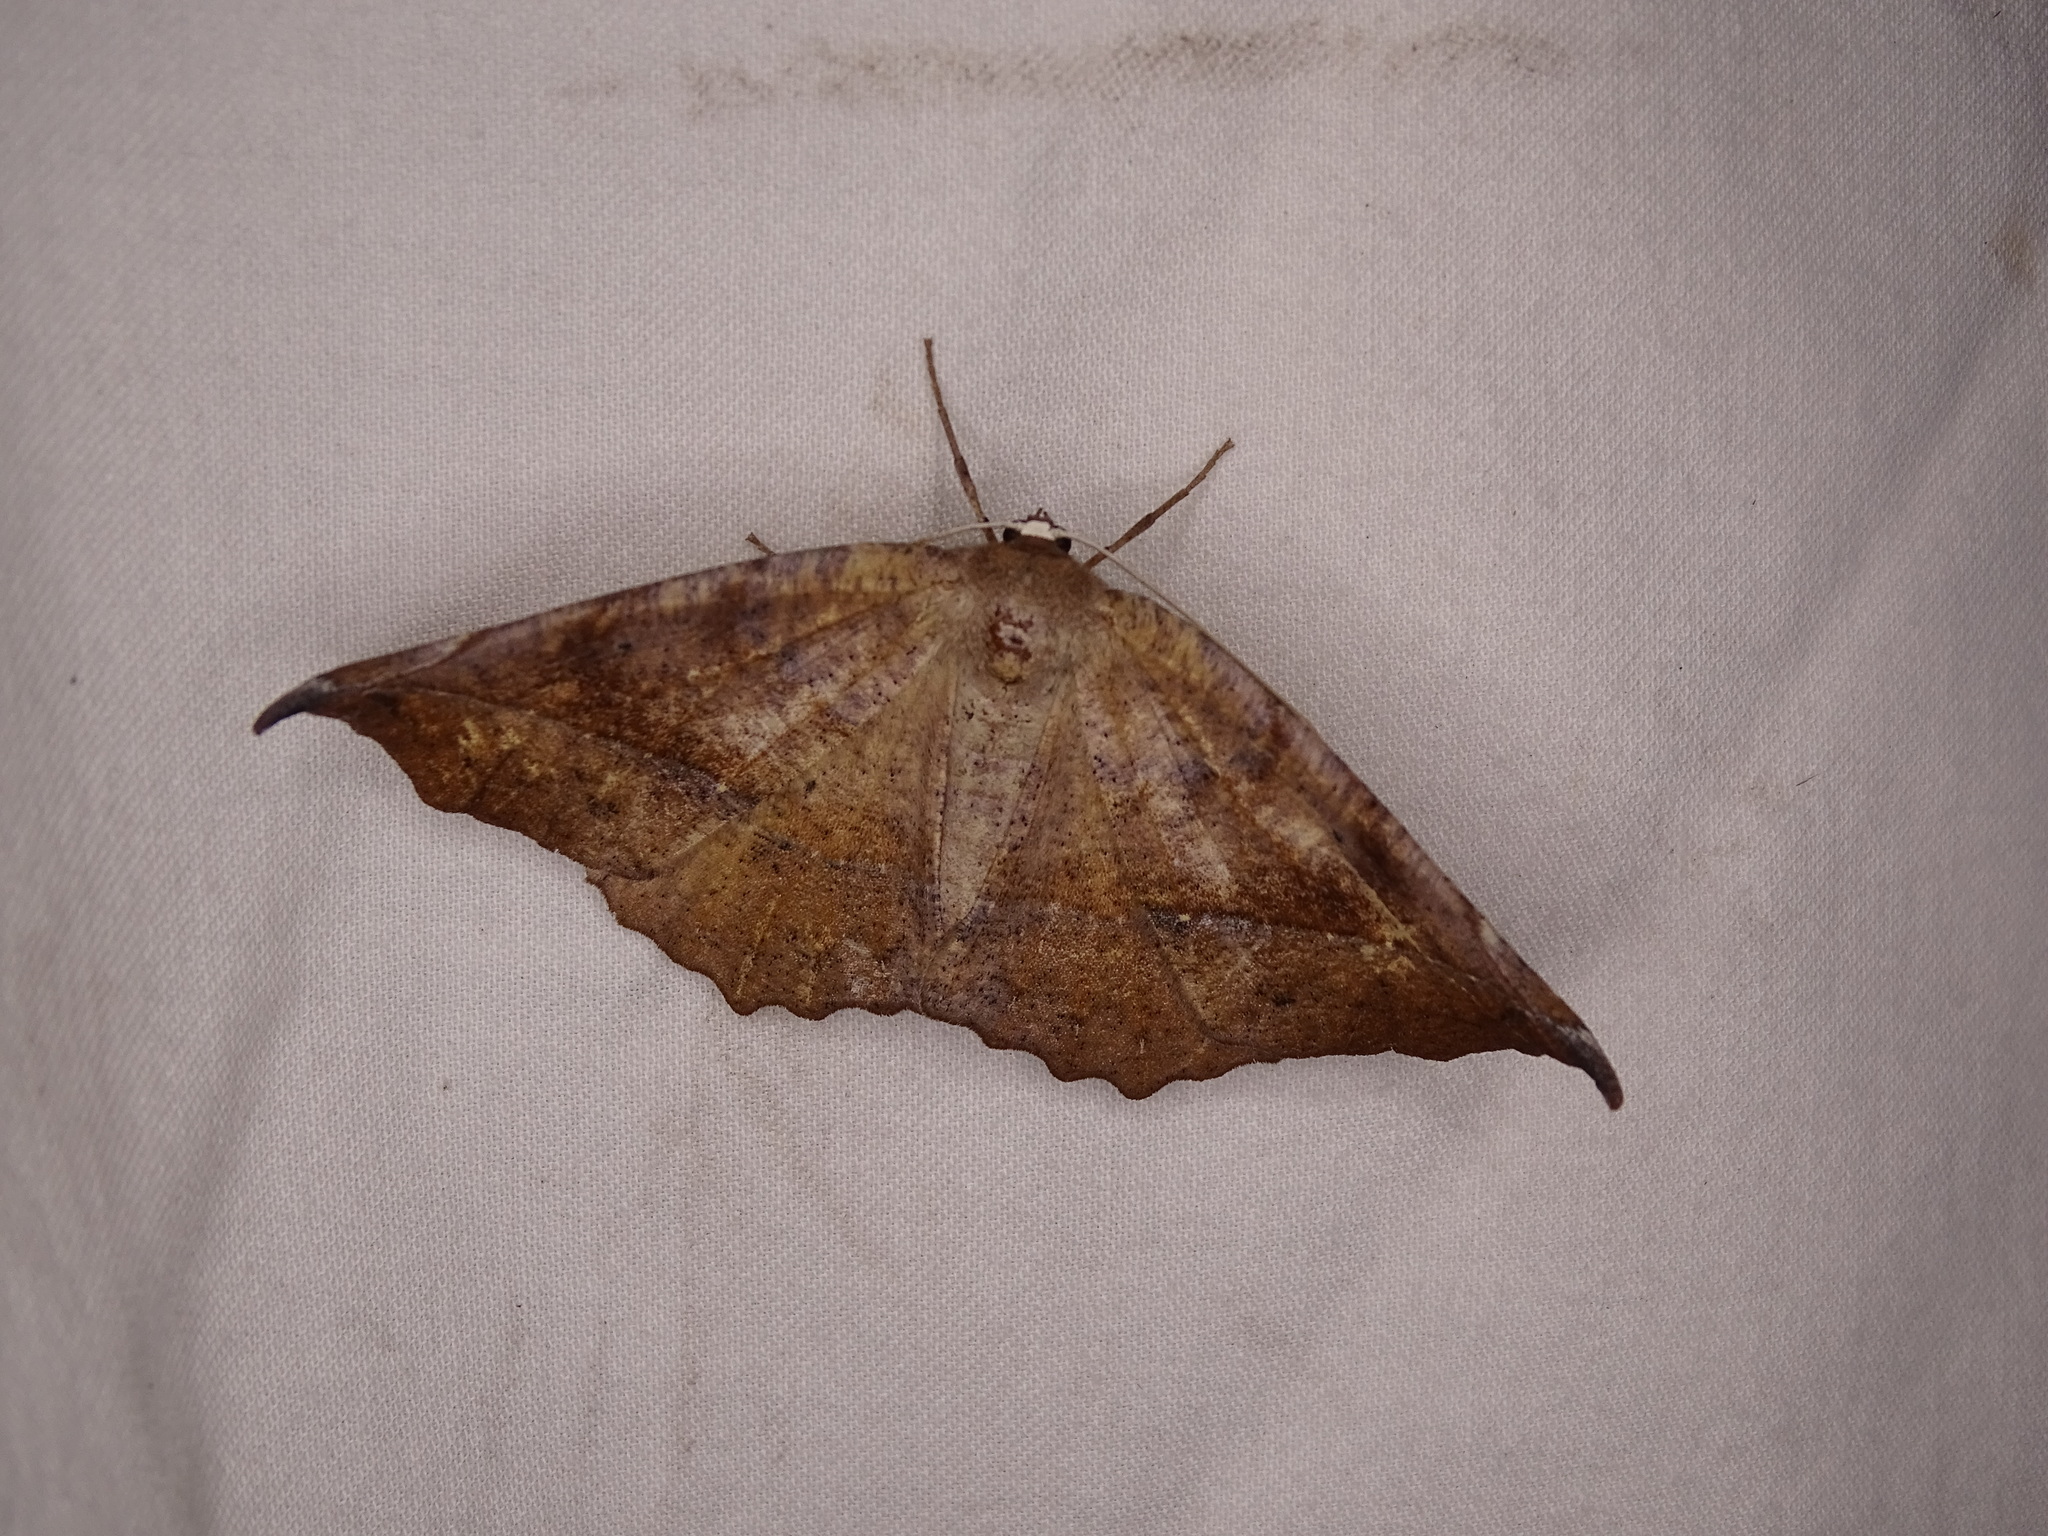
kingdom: Animalia
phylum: Arthropoda
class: Insecta
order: Lepidoptera
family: Geometridae
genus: Eutrapela
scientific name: Eutrapela clemataria
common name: Curved-toothed geometer
